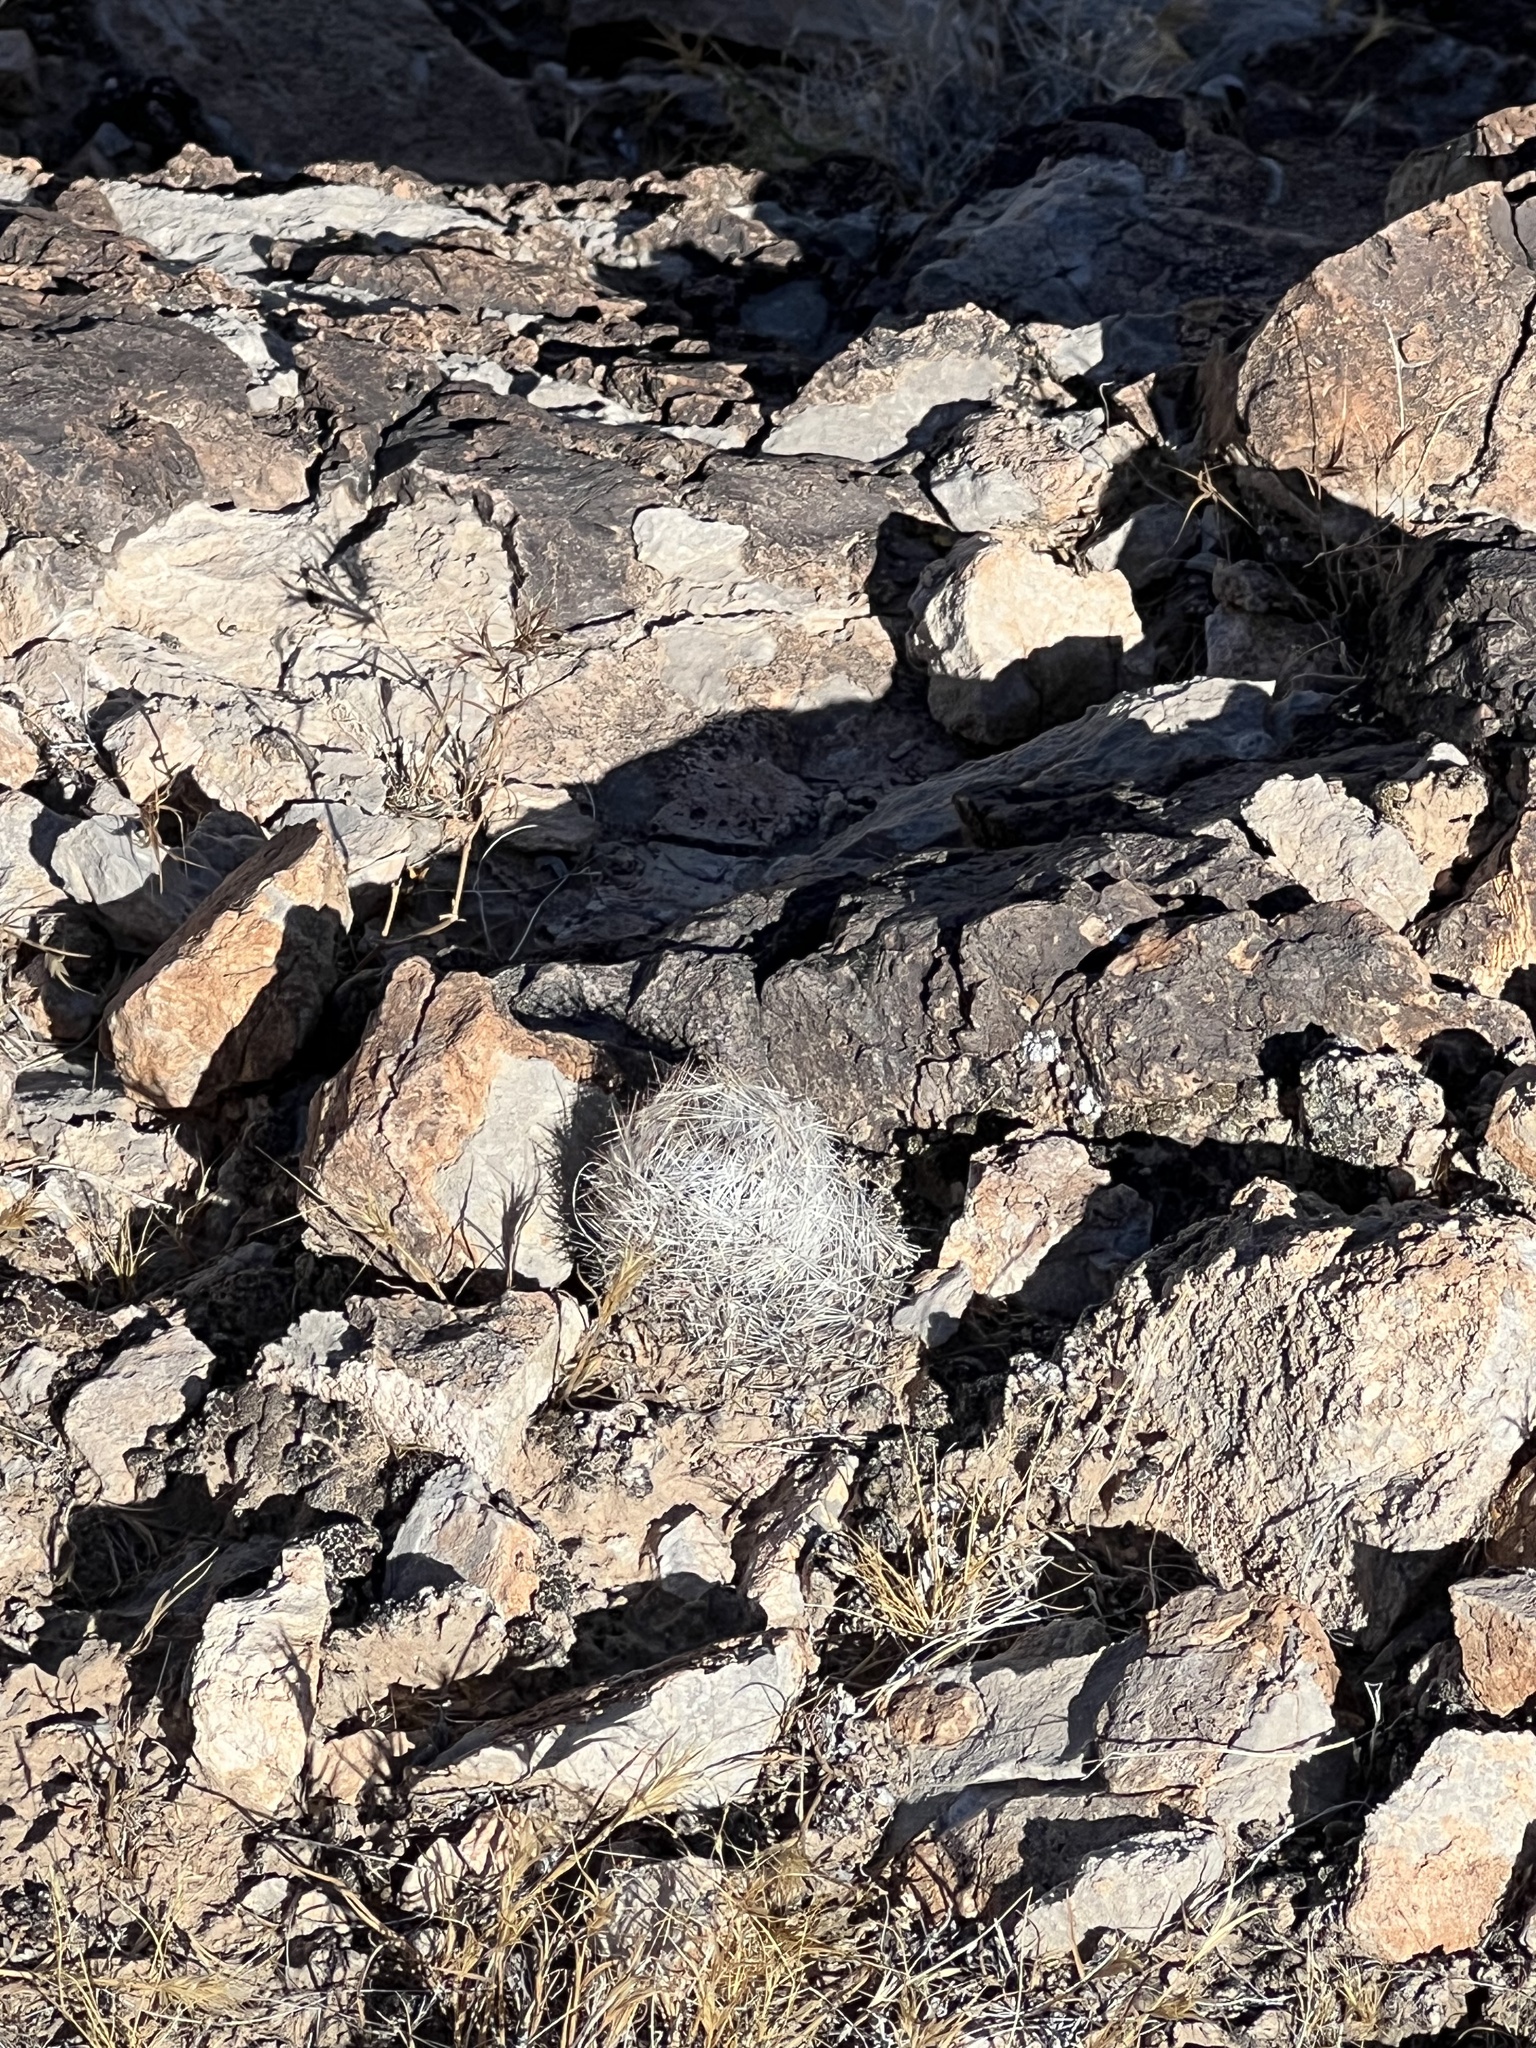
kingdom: Plantae
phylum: Tracheophyta
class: Magnoliopsida
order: Caryophyllales
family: Cactaceae
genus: Pelecyphora
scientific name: Pelecyphora dasyacantha
